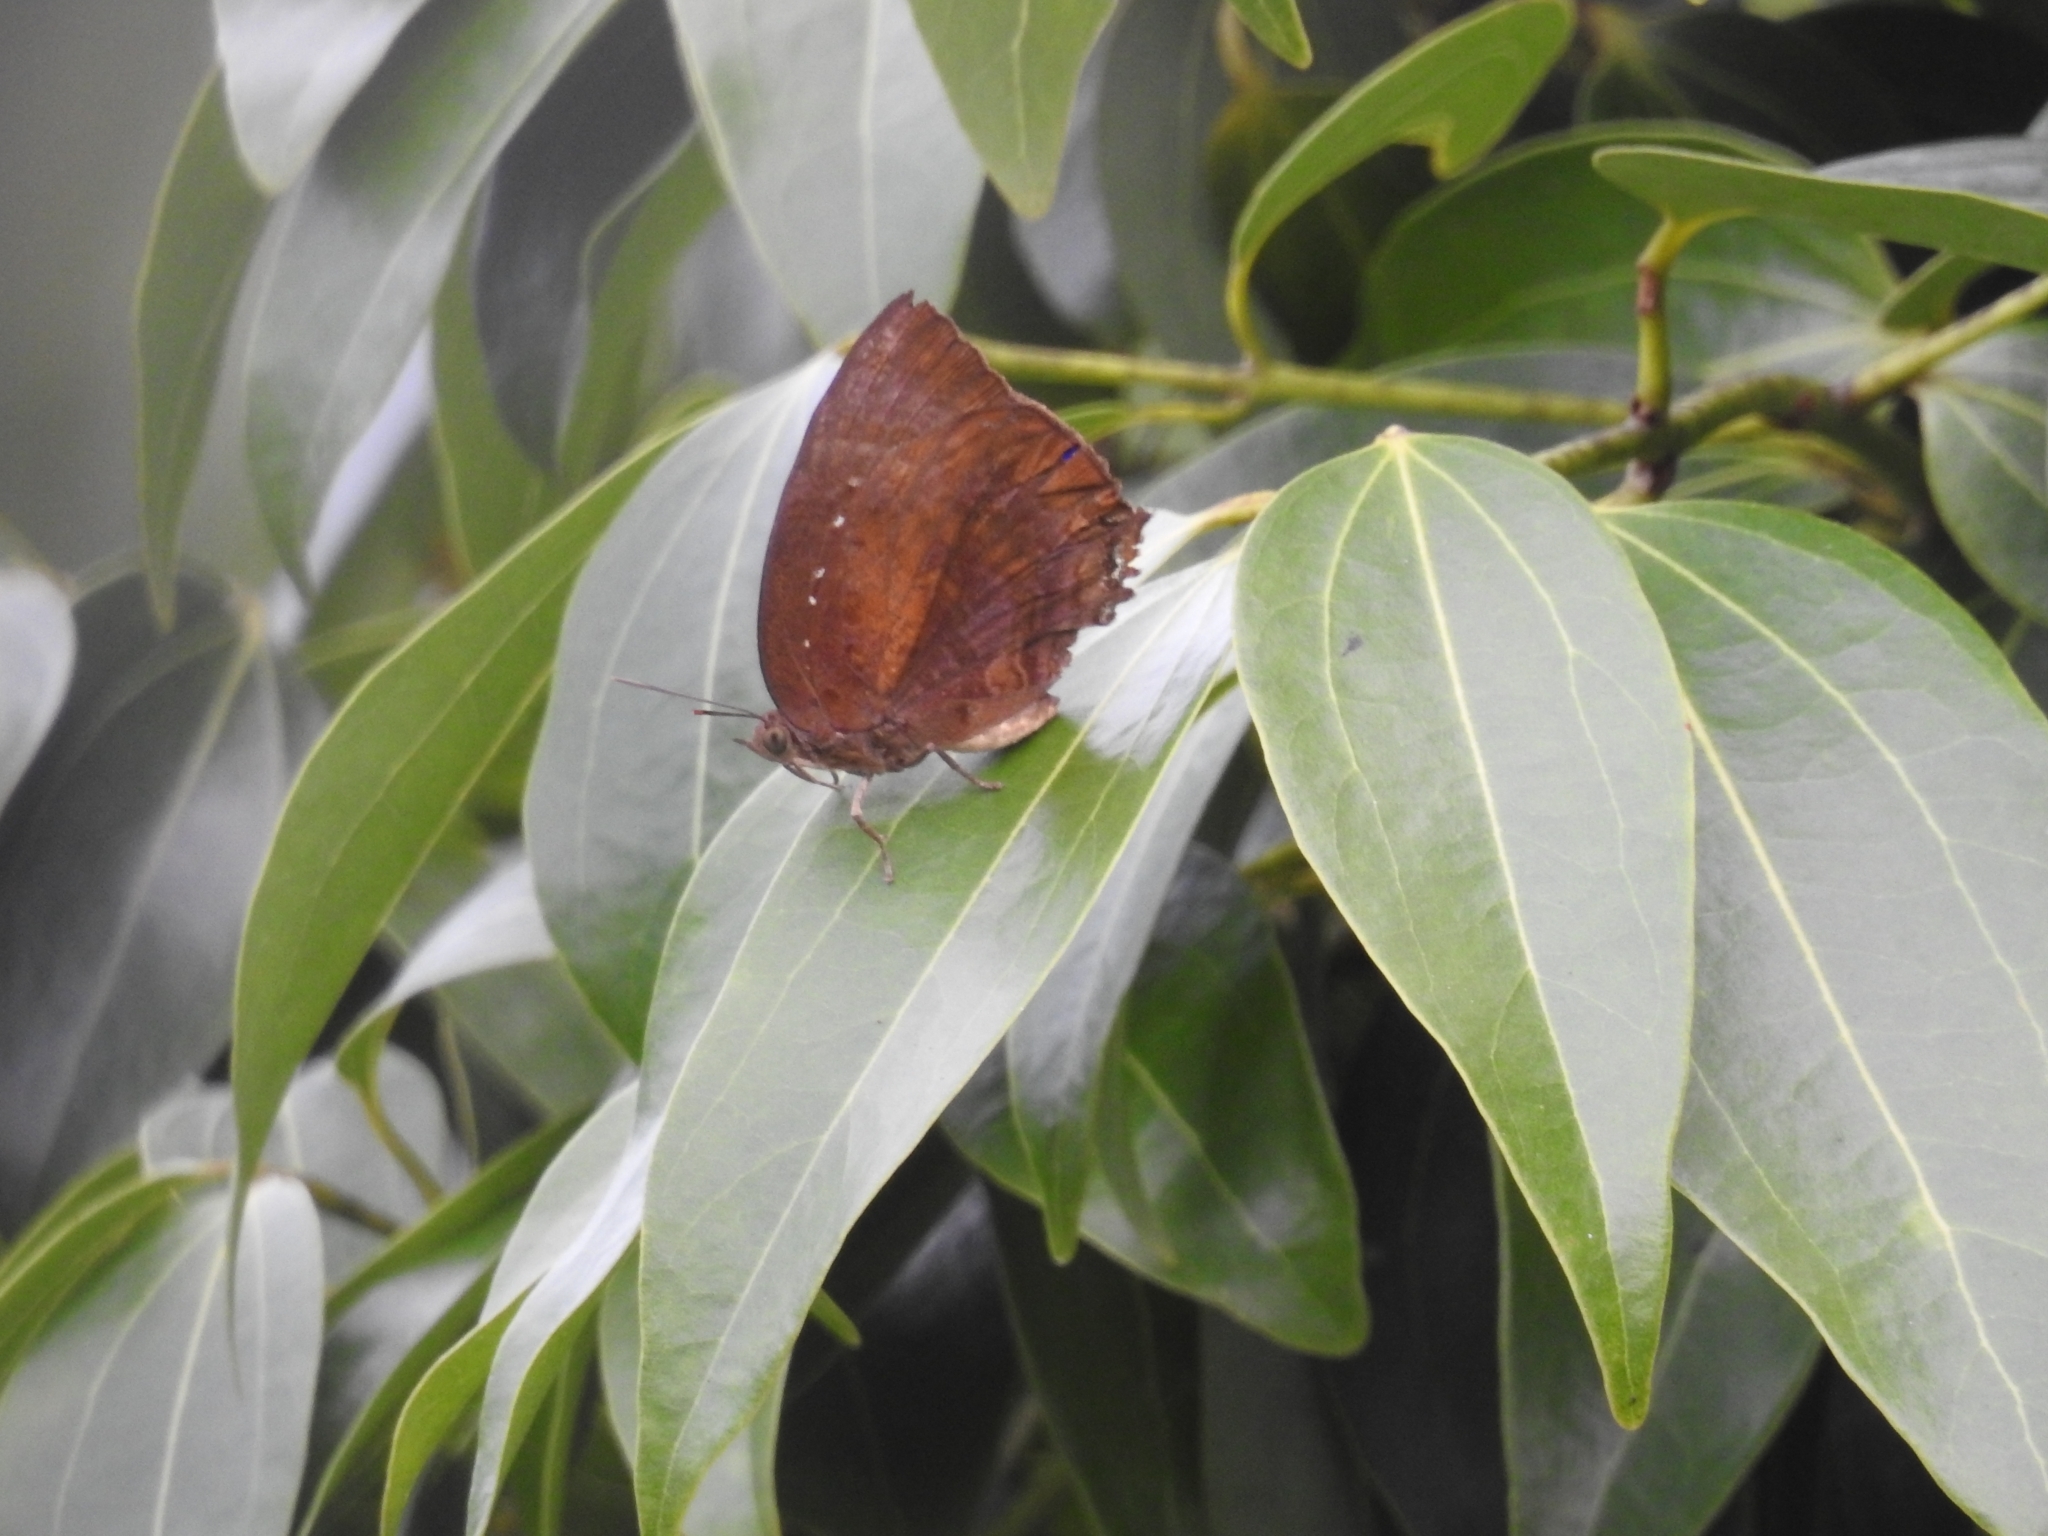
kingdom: Animalia
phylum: Arthropoda
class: Insecta
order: Lepidoptera
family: Lycaenidae
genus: Arhopala
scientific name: Arhopala centaurus
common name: Dull oak-blue
